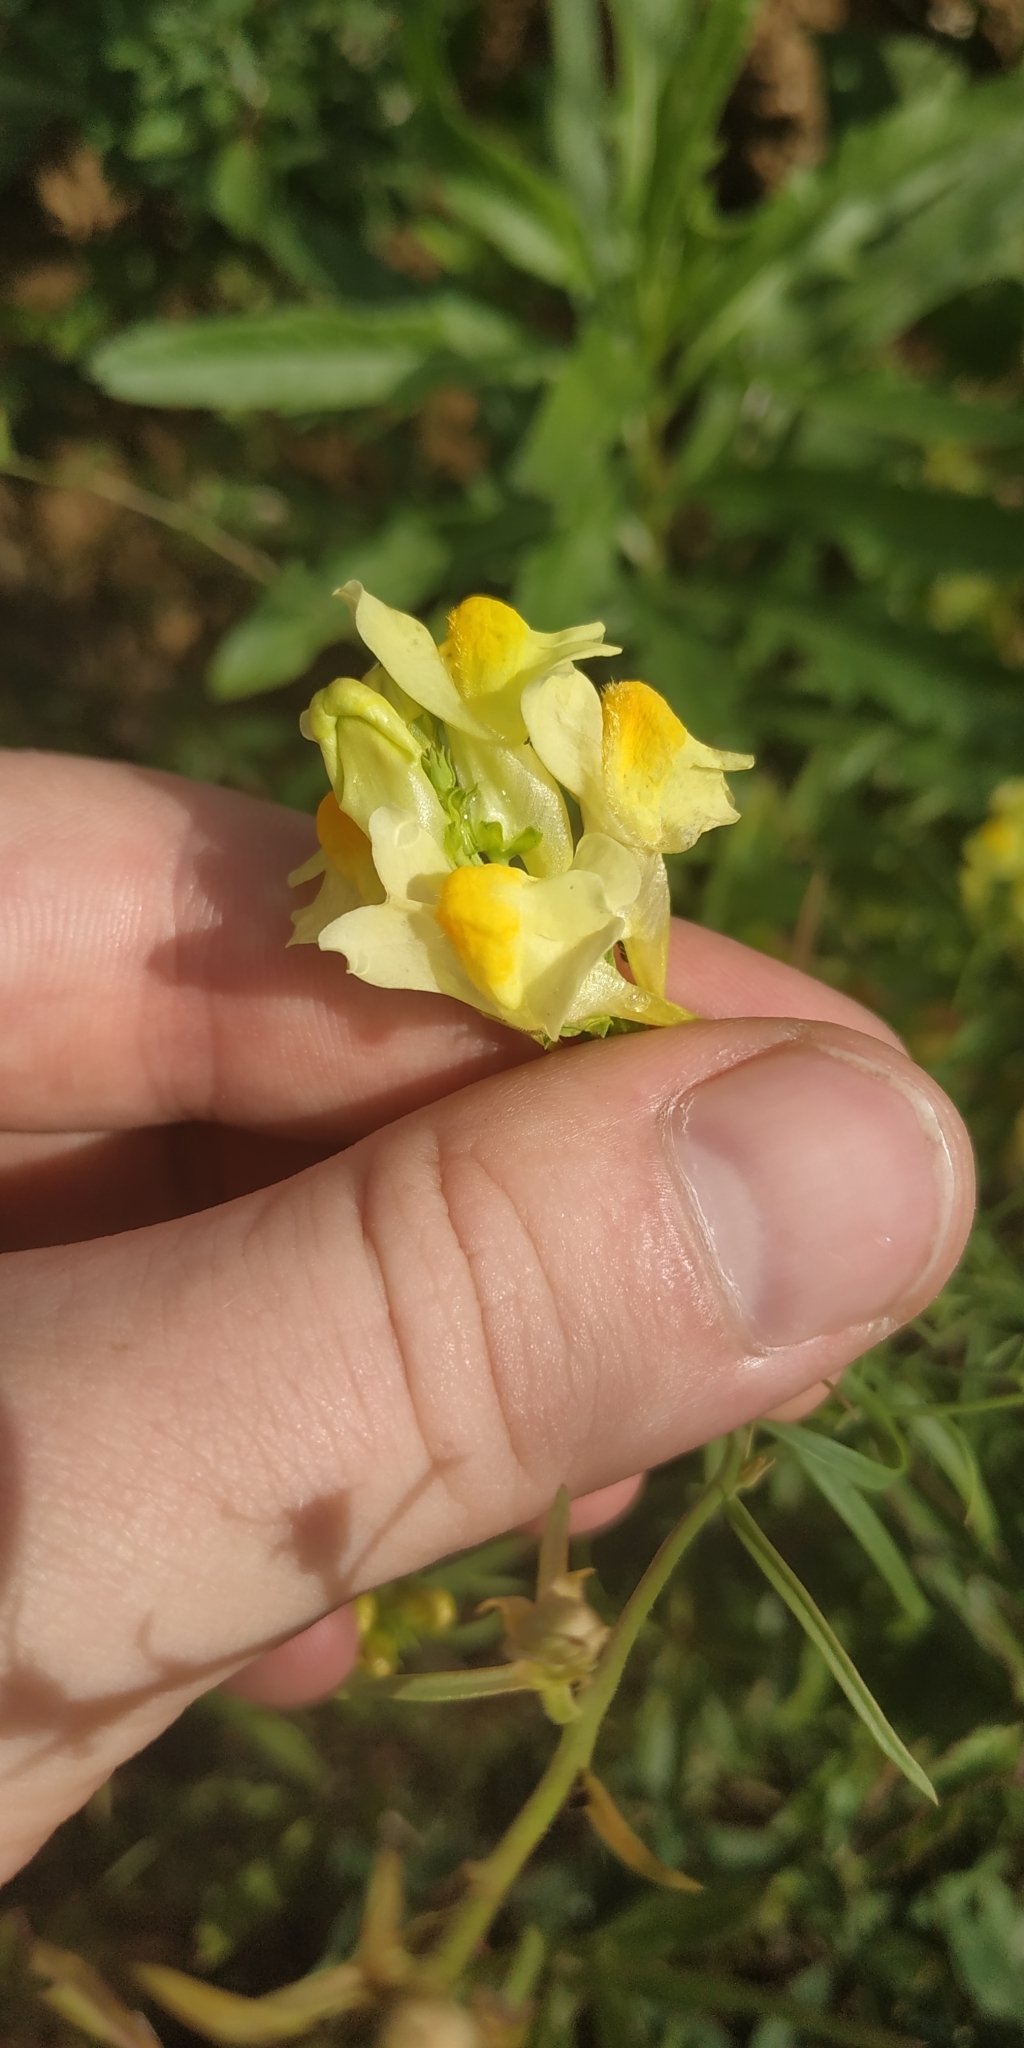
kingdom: Plantae
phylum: Tracheophyta
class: Magnoliopsida
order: Lamiales
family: Plantaginaceae
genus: Linaria
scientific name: Linaria vulgaris
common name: Butter and eggs
